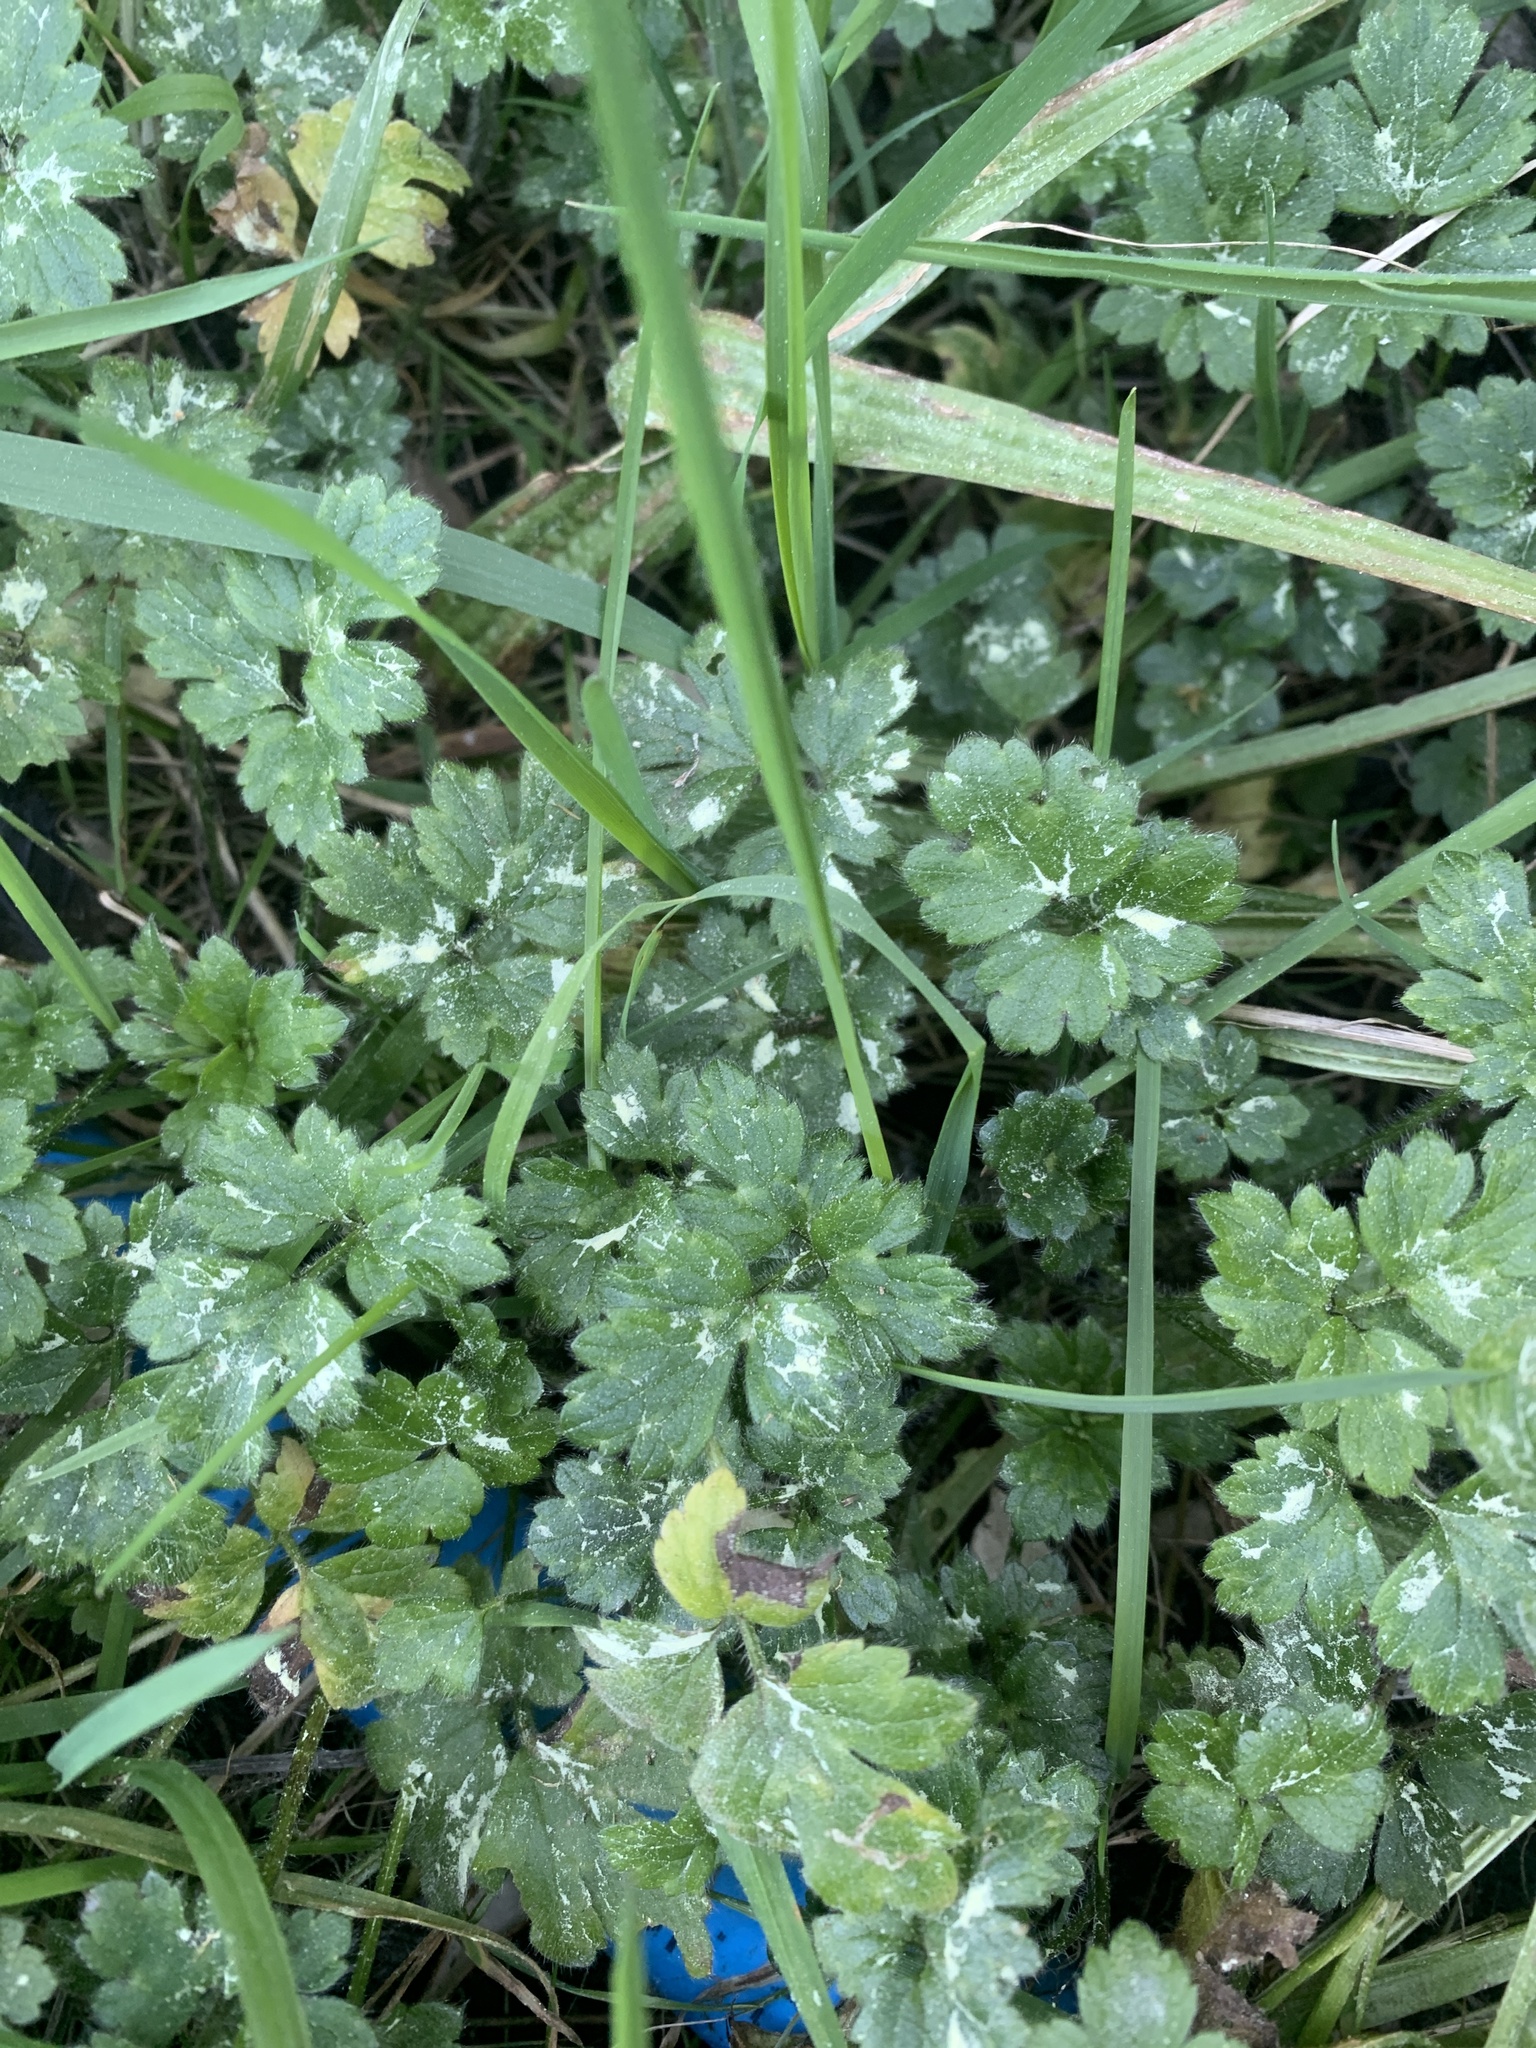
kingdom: Plantae
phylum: Tracheophyta
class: Magnoliopsida
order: Ranunculales
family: Ranunculaceae
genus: Ranunculus
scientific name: Ranunculus repens
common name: Creeping buttercup
